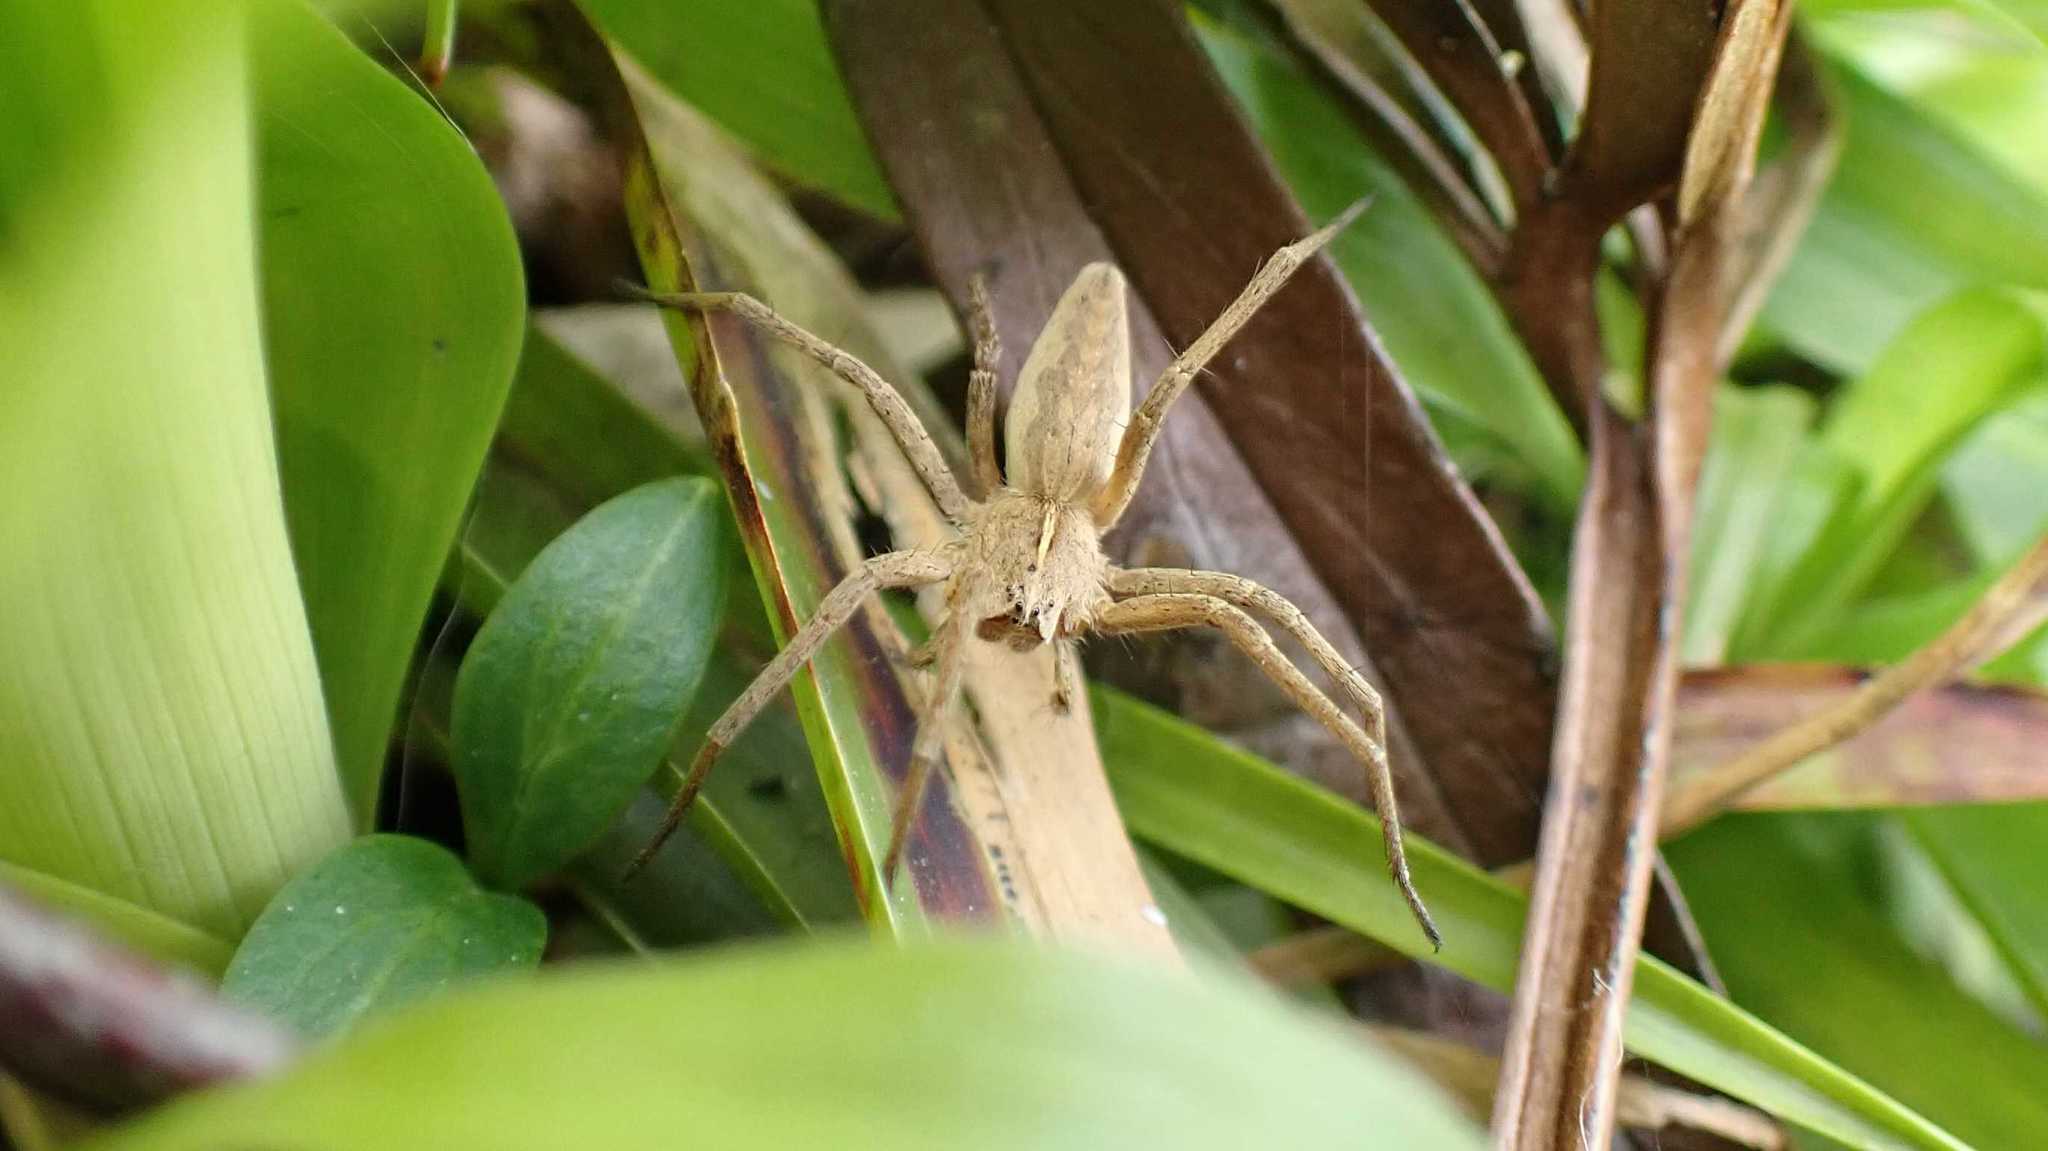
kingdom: Animalia
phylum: Arthropoda
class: Arachnida
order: Araneae
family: Pisauridae
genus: Pisaura
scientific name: Pisaura mirabilis
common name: Tent spider
